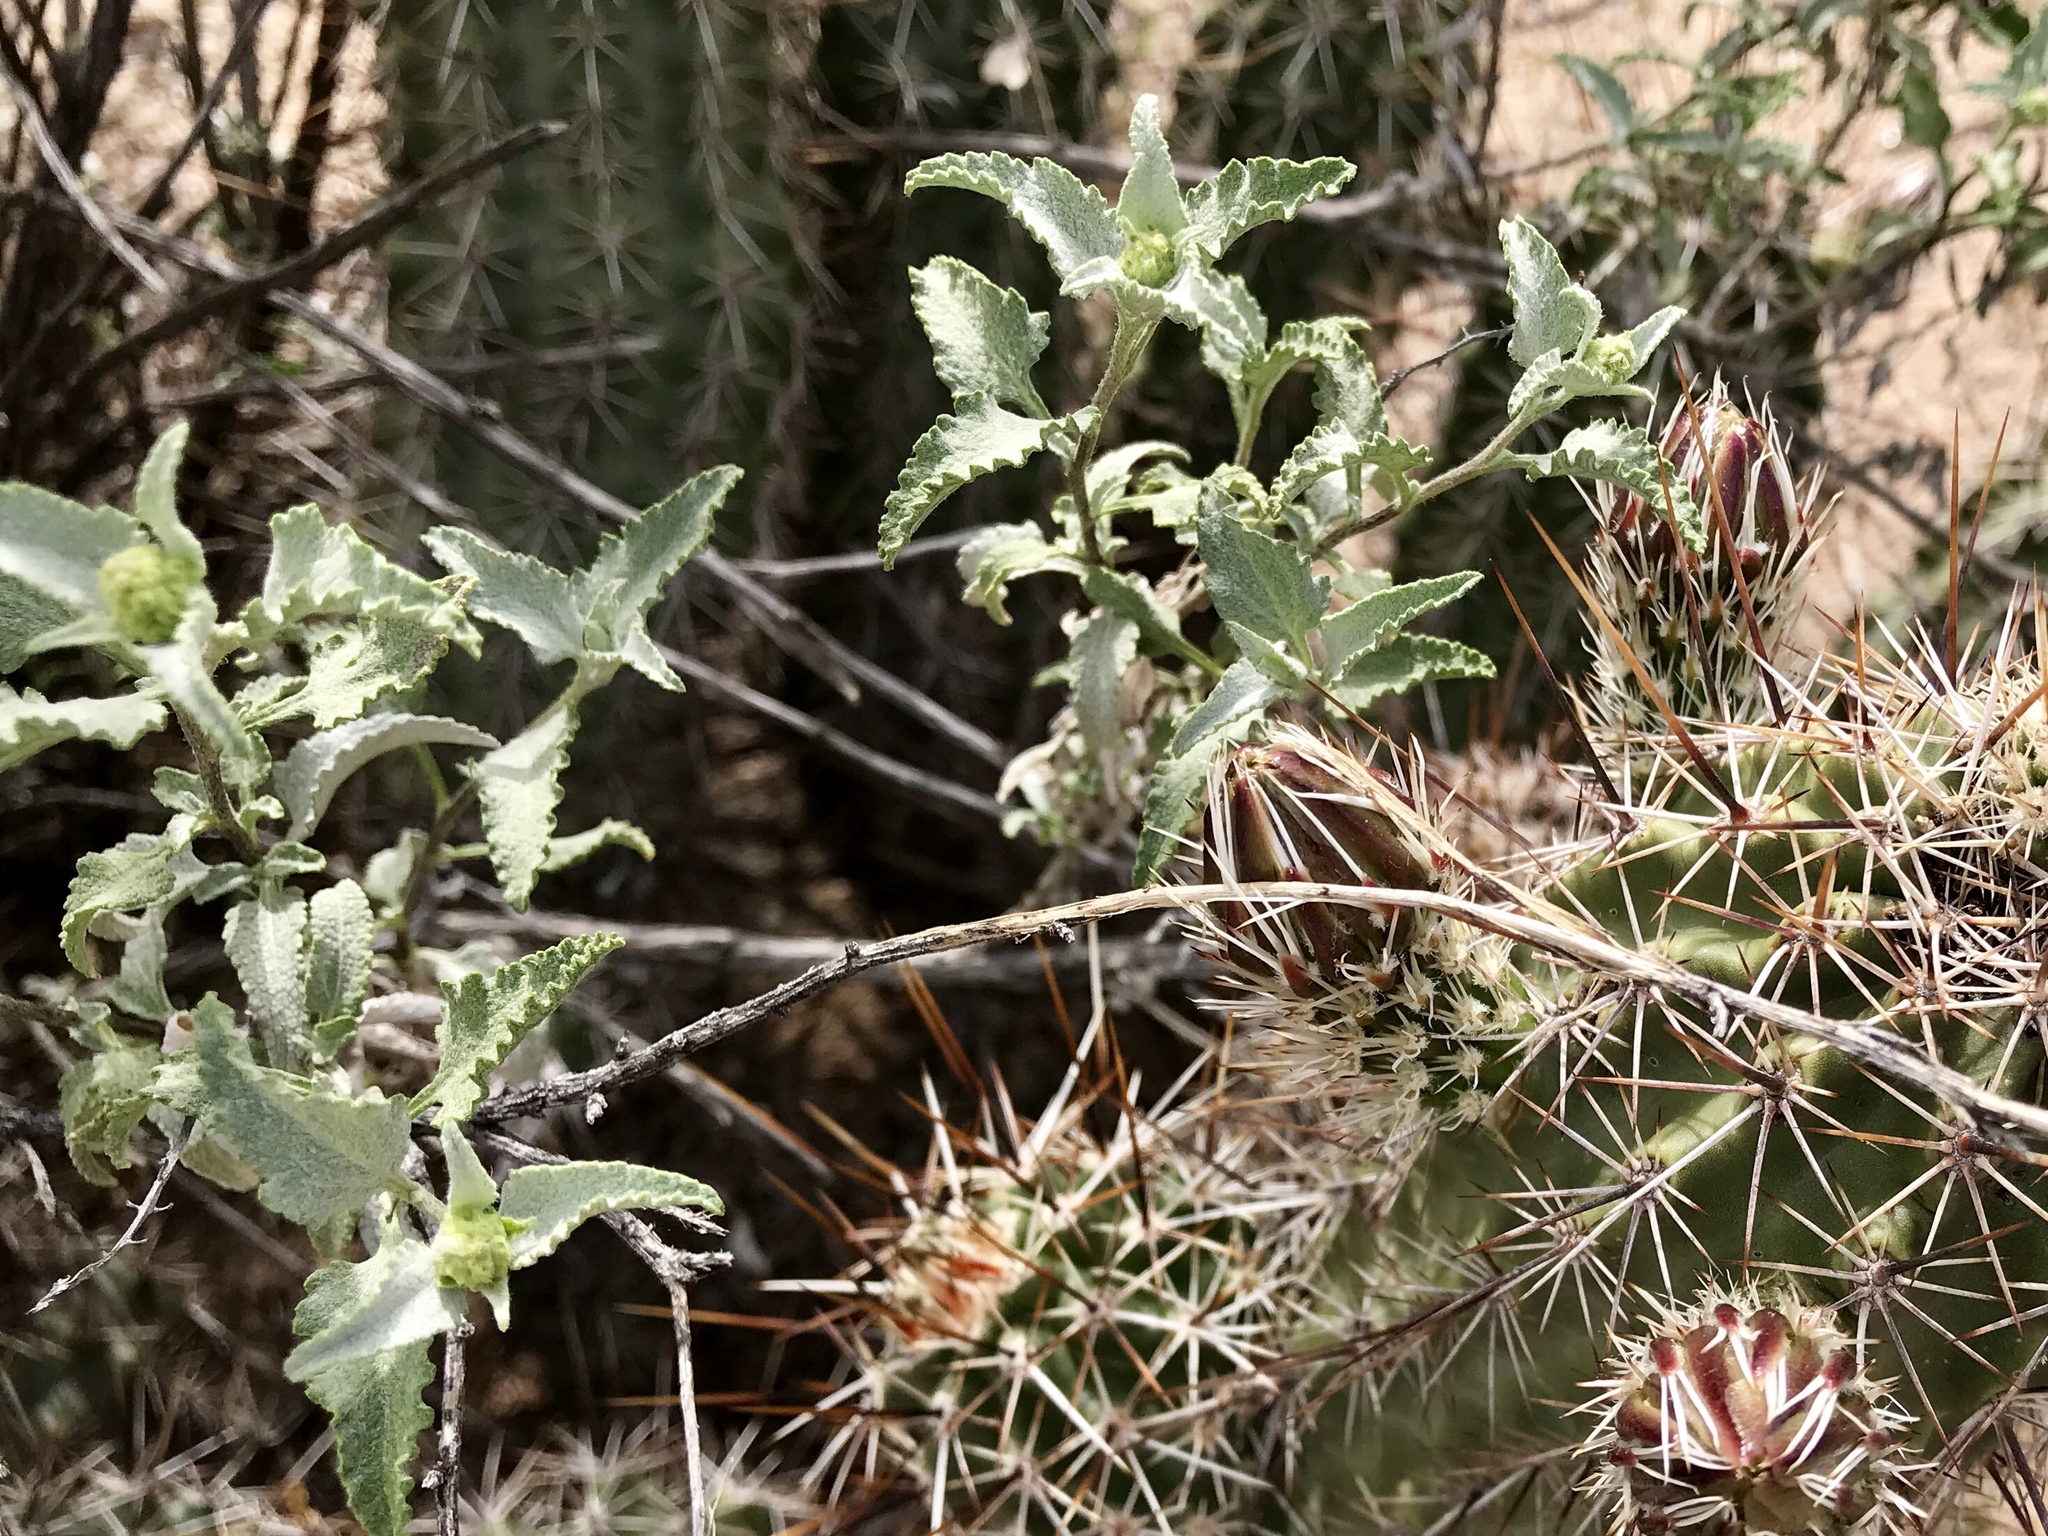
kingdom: Plantae
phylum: Tracheophyta
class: Magnoliopsida
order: Asterales
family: Asteraceae
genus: Ambrosia
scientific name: Ambrosia deltoidea
